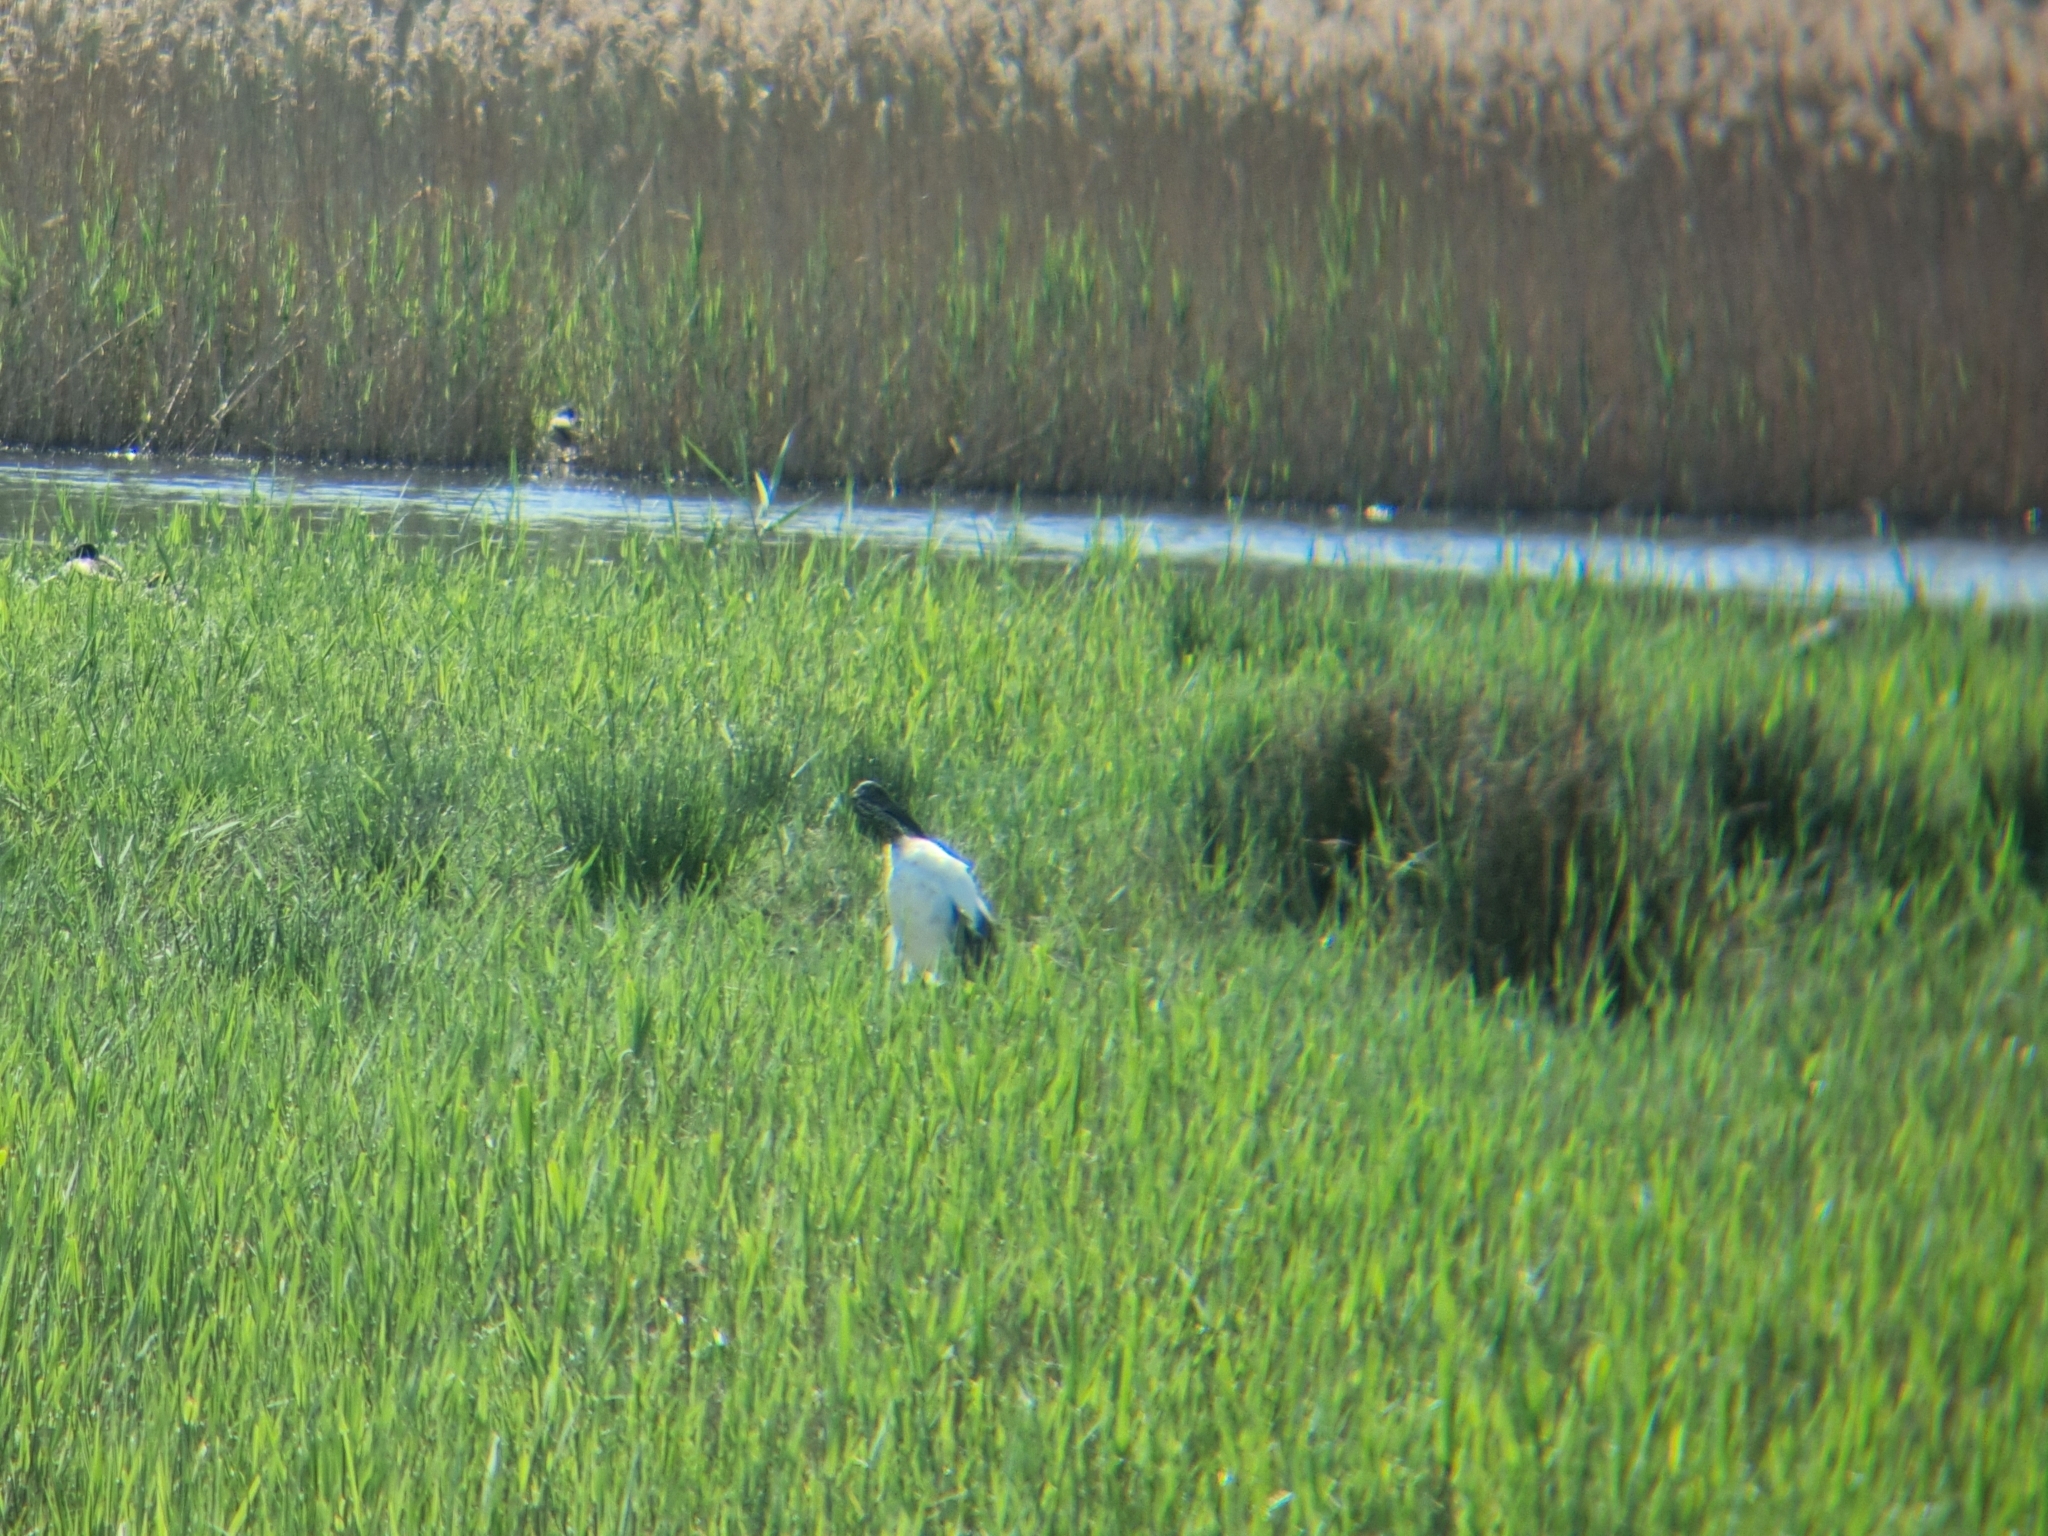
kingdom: Animalia
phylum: Chordata
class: Aves
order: Pelecaniformes
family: Threskiornithidae
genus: Threskiornis
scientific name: Threskiornis aethiopicus
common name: Sacred ibis
